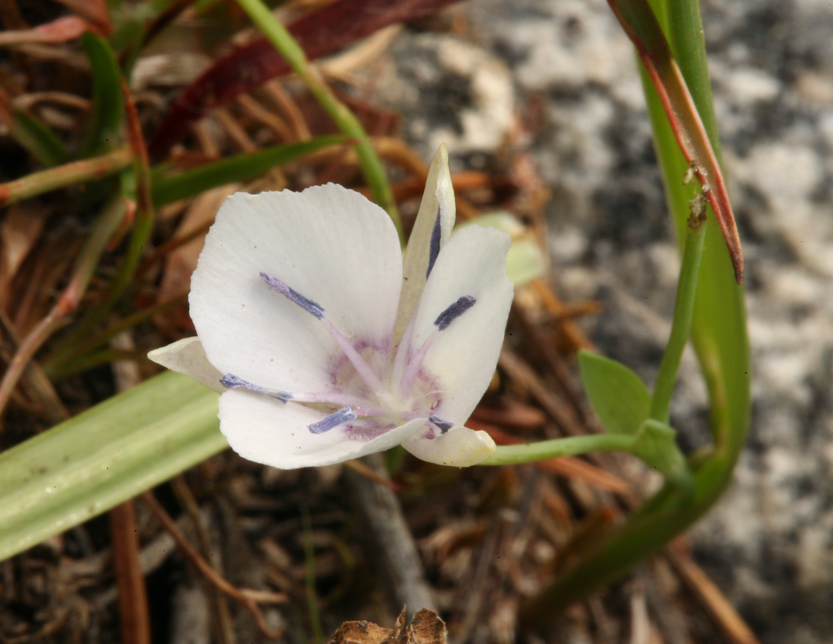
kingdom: Plantae
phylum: Tracheophyta
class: Liliopsida
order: Liliales
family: Liliaceae
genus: Calochortus
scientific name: Calochortus minimus
